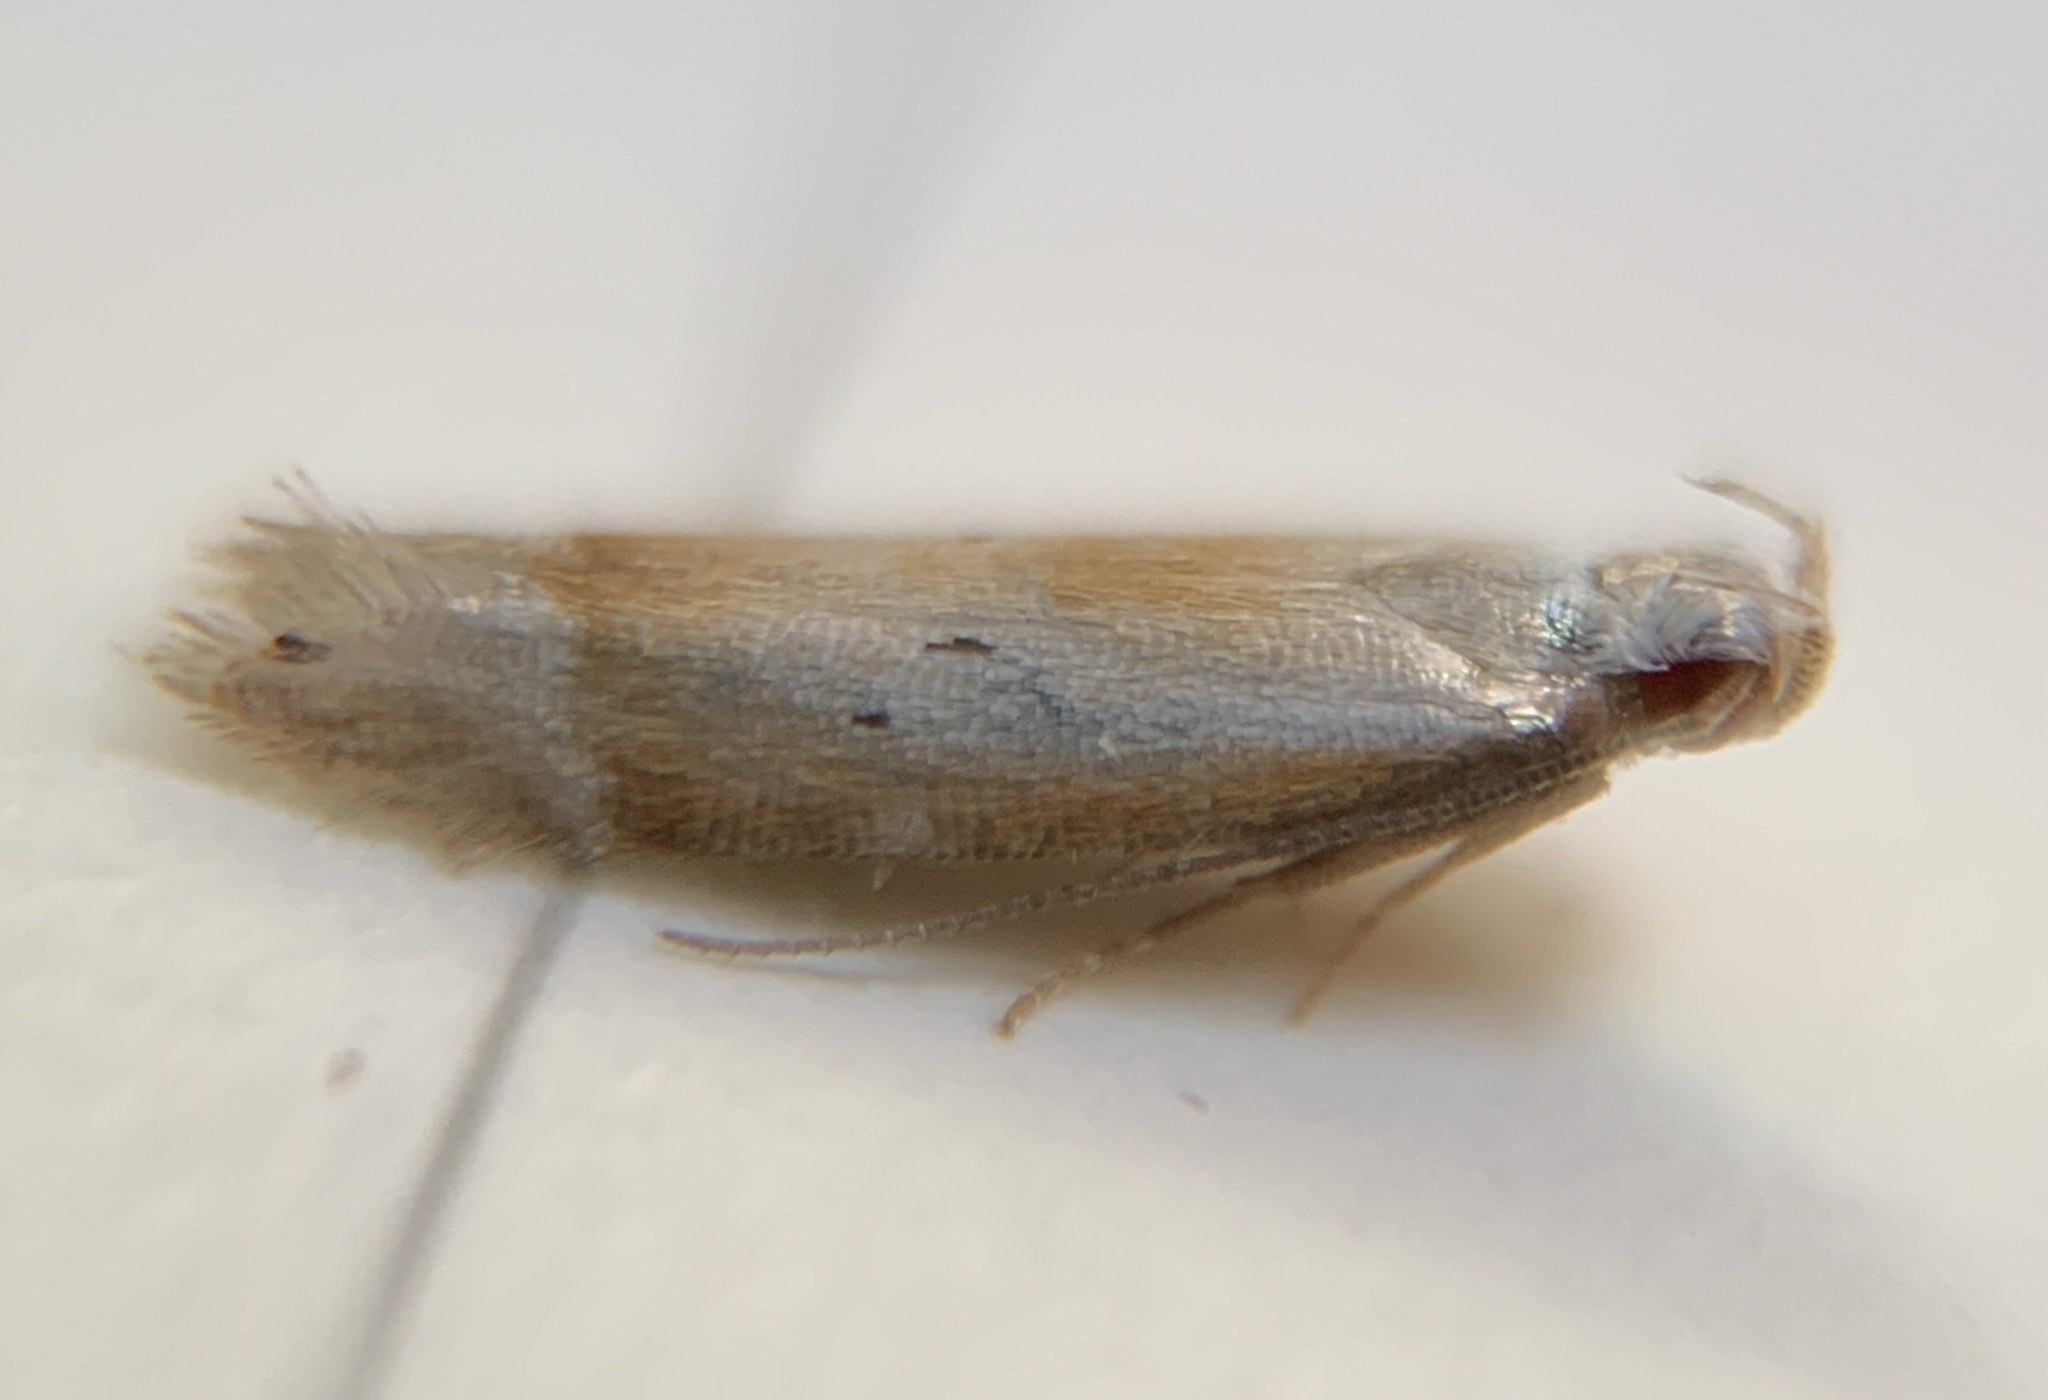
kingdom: Animalia
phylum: Arthropoda
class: Insecta
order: Lepidoptera
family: Gelechiidae
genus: Battaristis
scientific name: Battaristis
